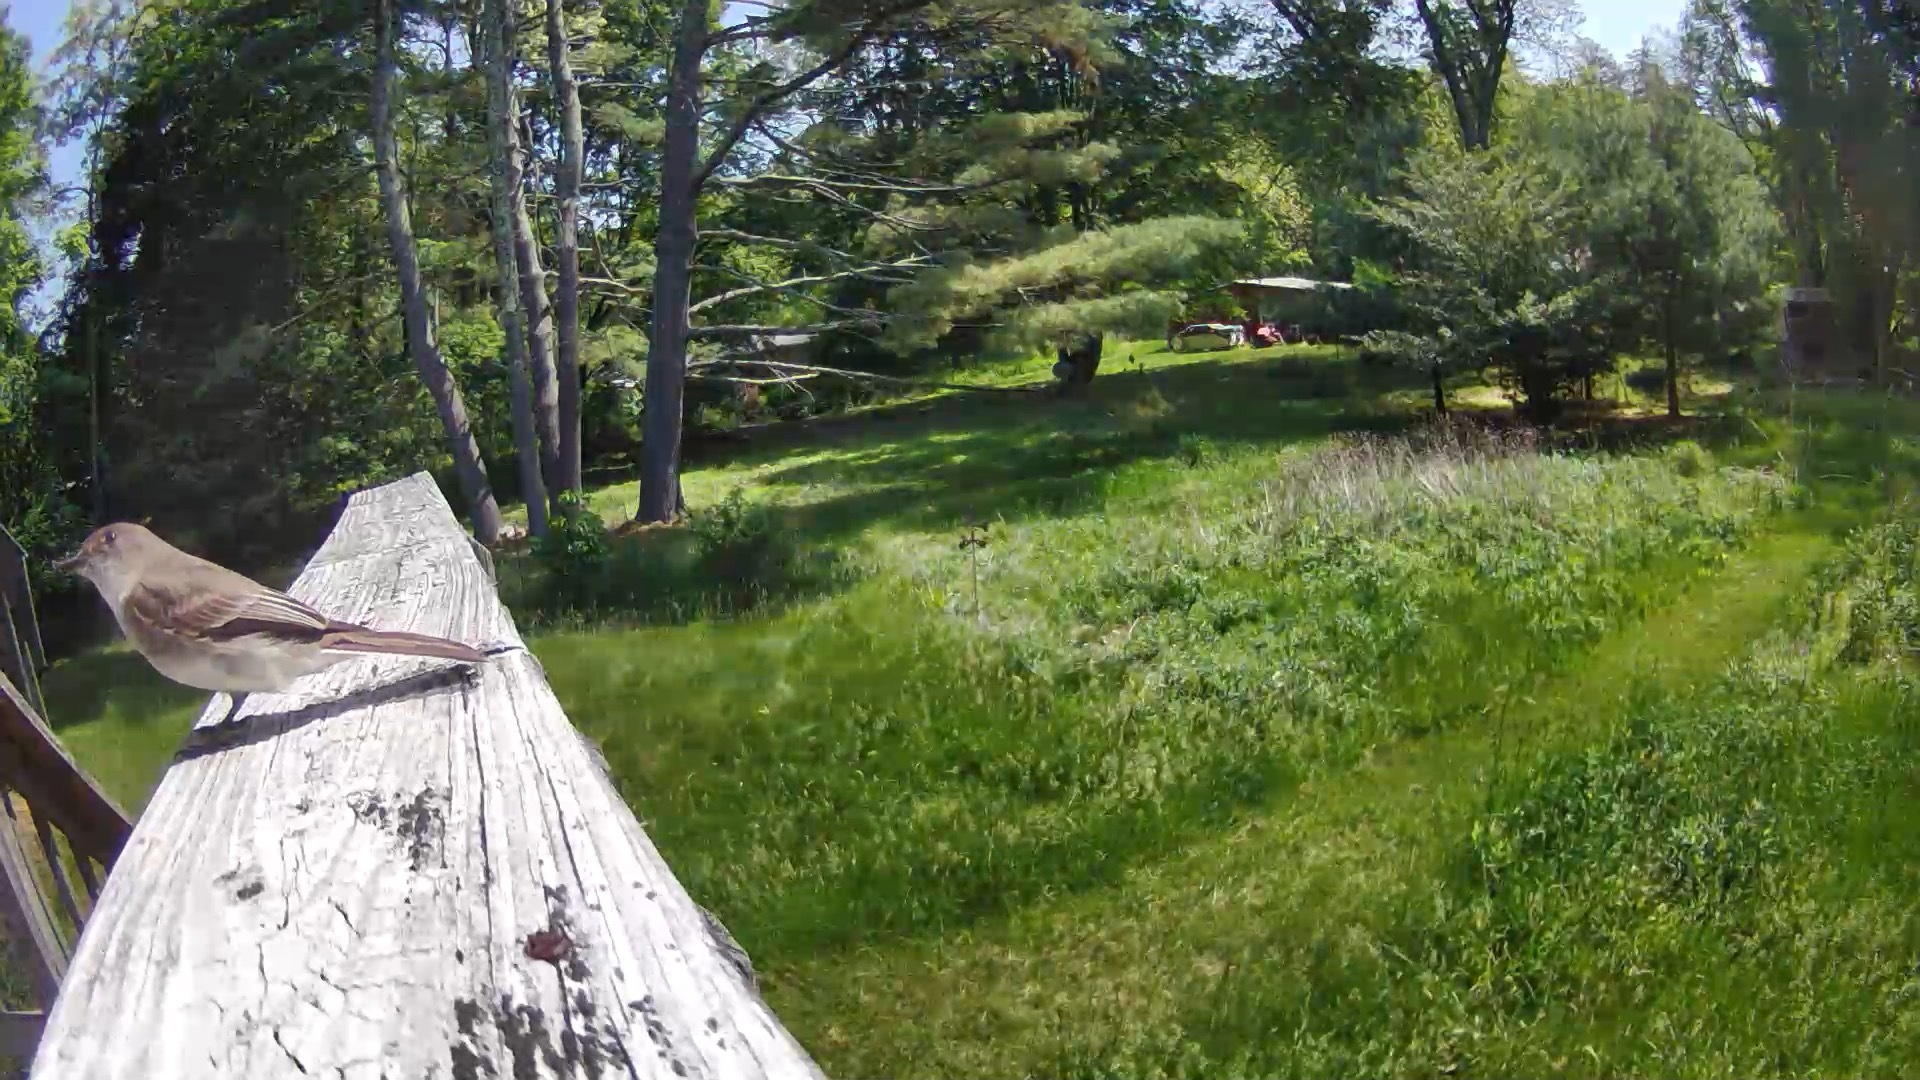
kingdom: Animalia
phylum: Chordata
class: Aves
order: Passeriformes
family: Tyrannidae
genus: Sayornis
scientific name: Sayornis phoebe
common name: Eastern phoebe
